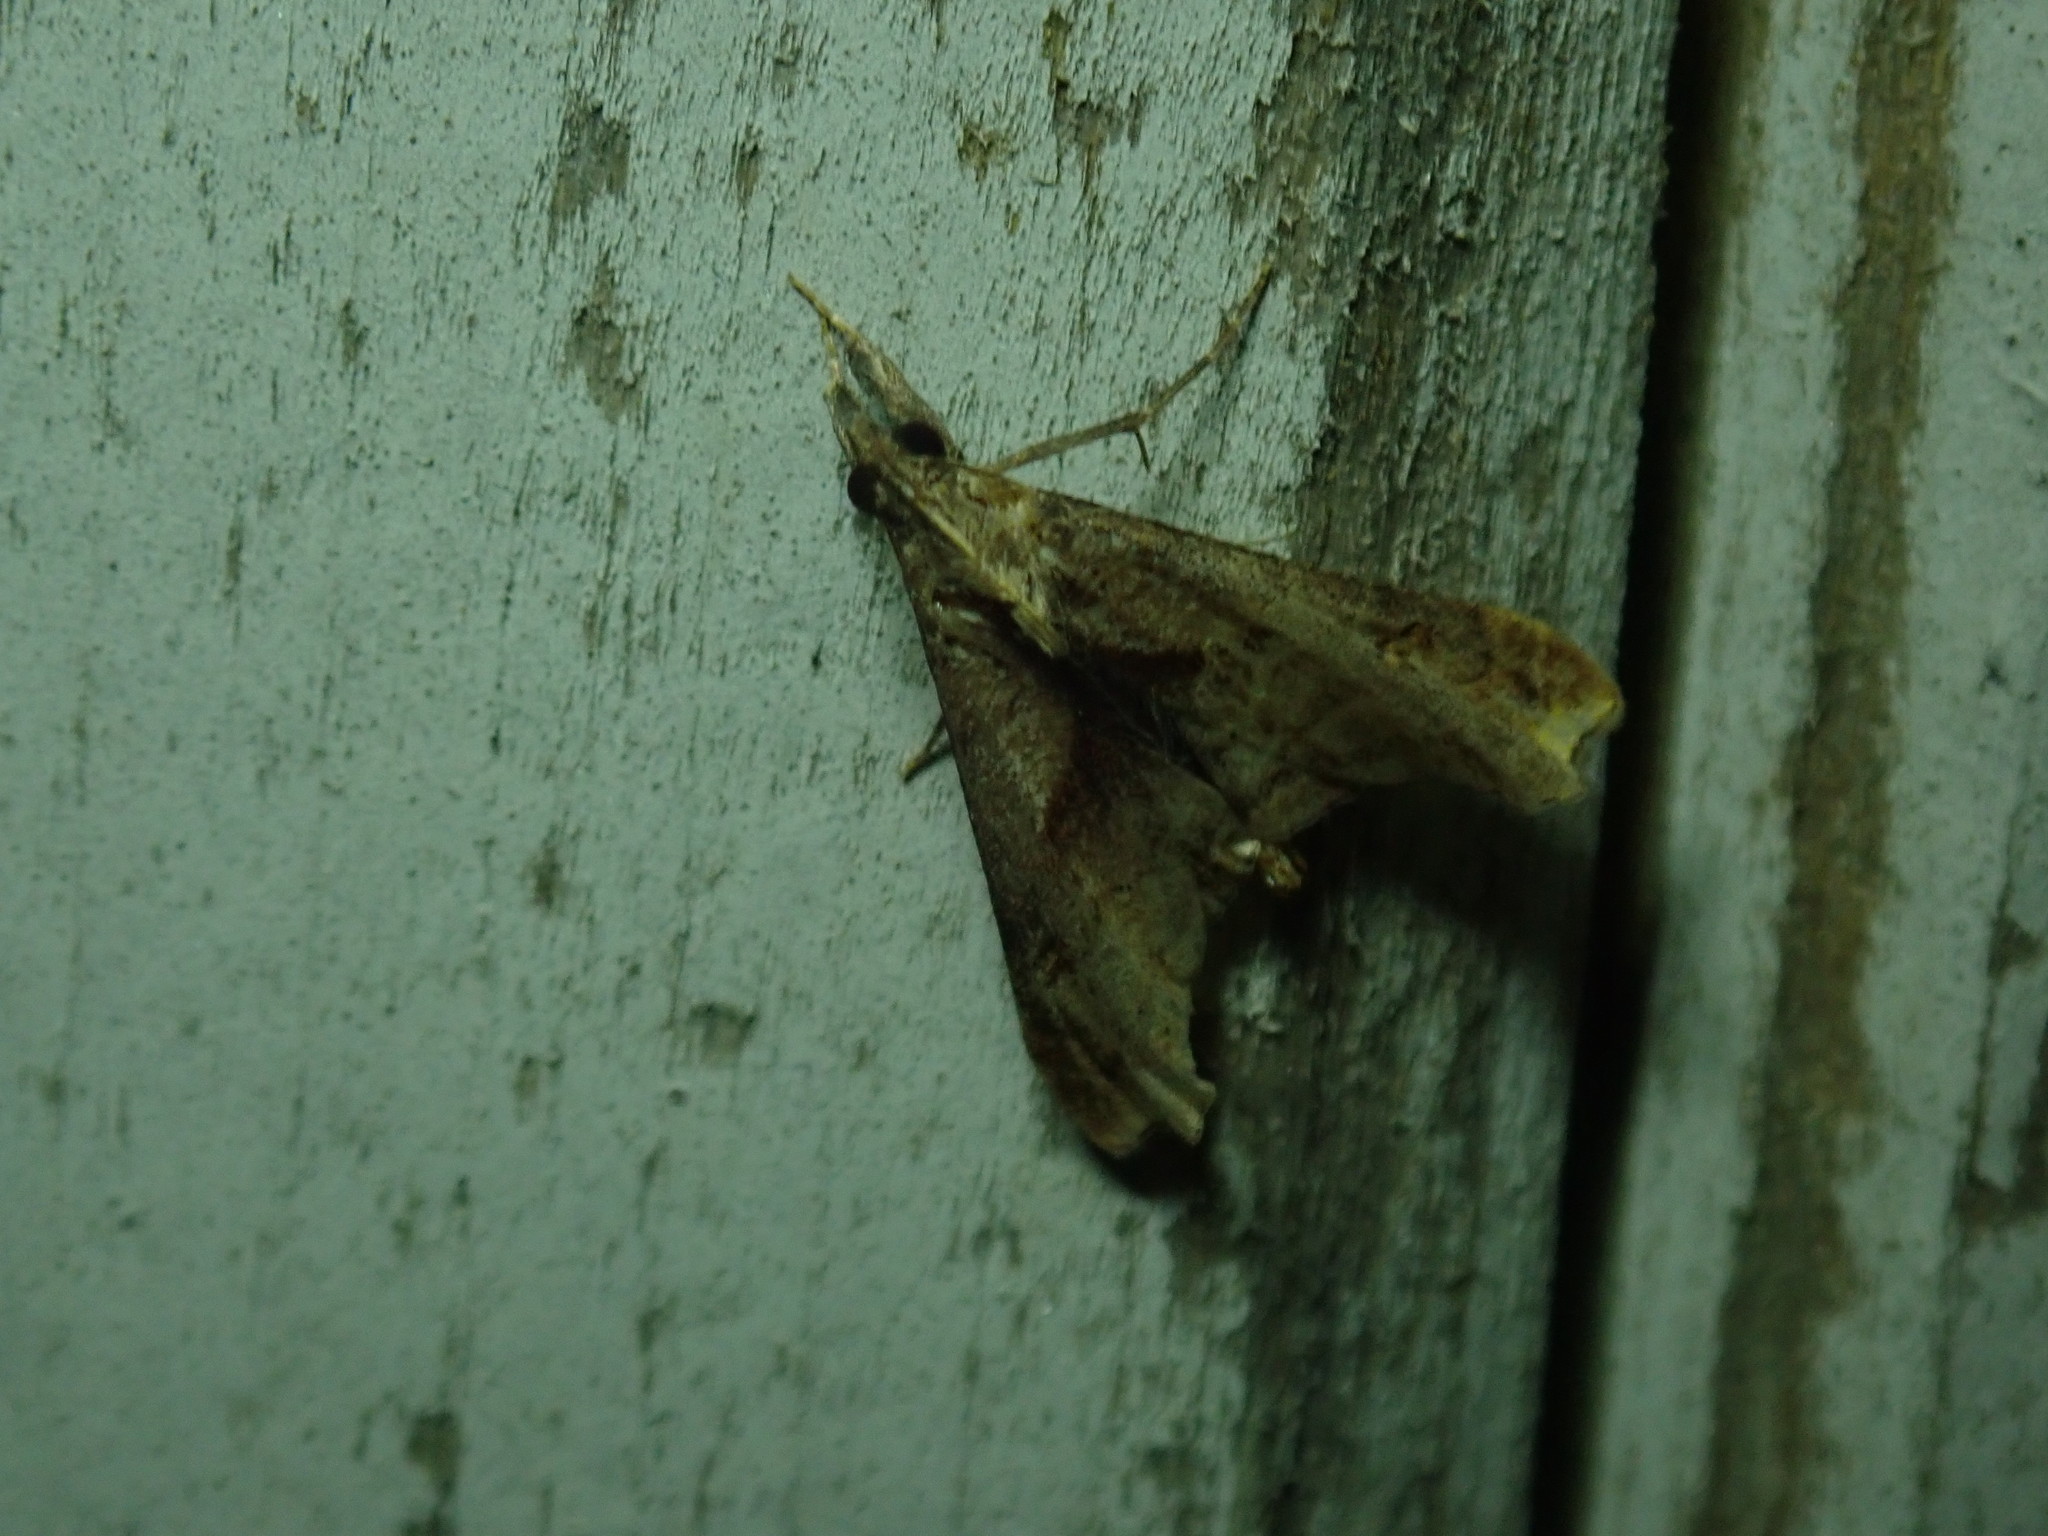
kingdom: Animalia
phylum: Arthropoda
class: Insecta
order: Lepidoptera
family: Erebidae
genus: Palthis
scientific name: Palthis angulalis
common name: Dark-spotted palthis moth
